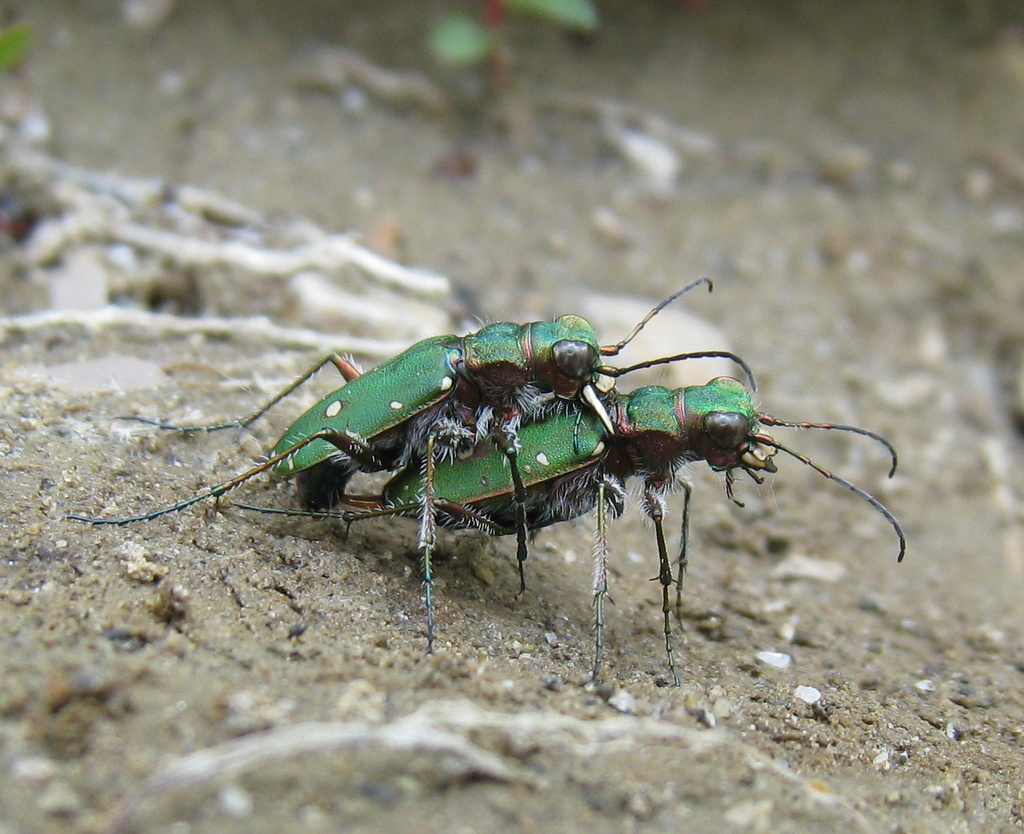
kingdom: Animalia
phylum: Arthropoda
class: Insecta
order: Coleoptera
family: Carabidae
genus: Cicindela
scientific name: Cicindela campestris
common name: Common tiger beetle
